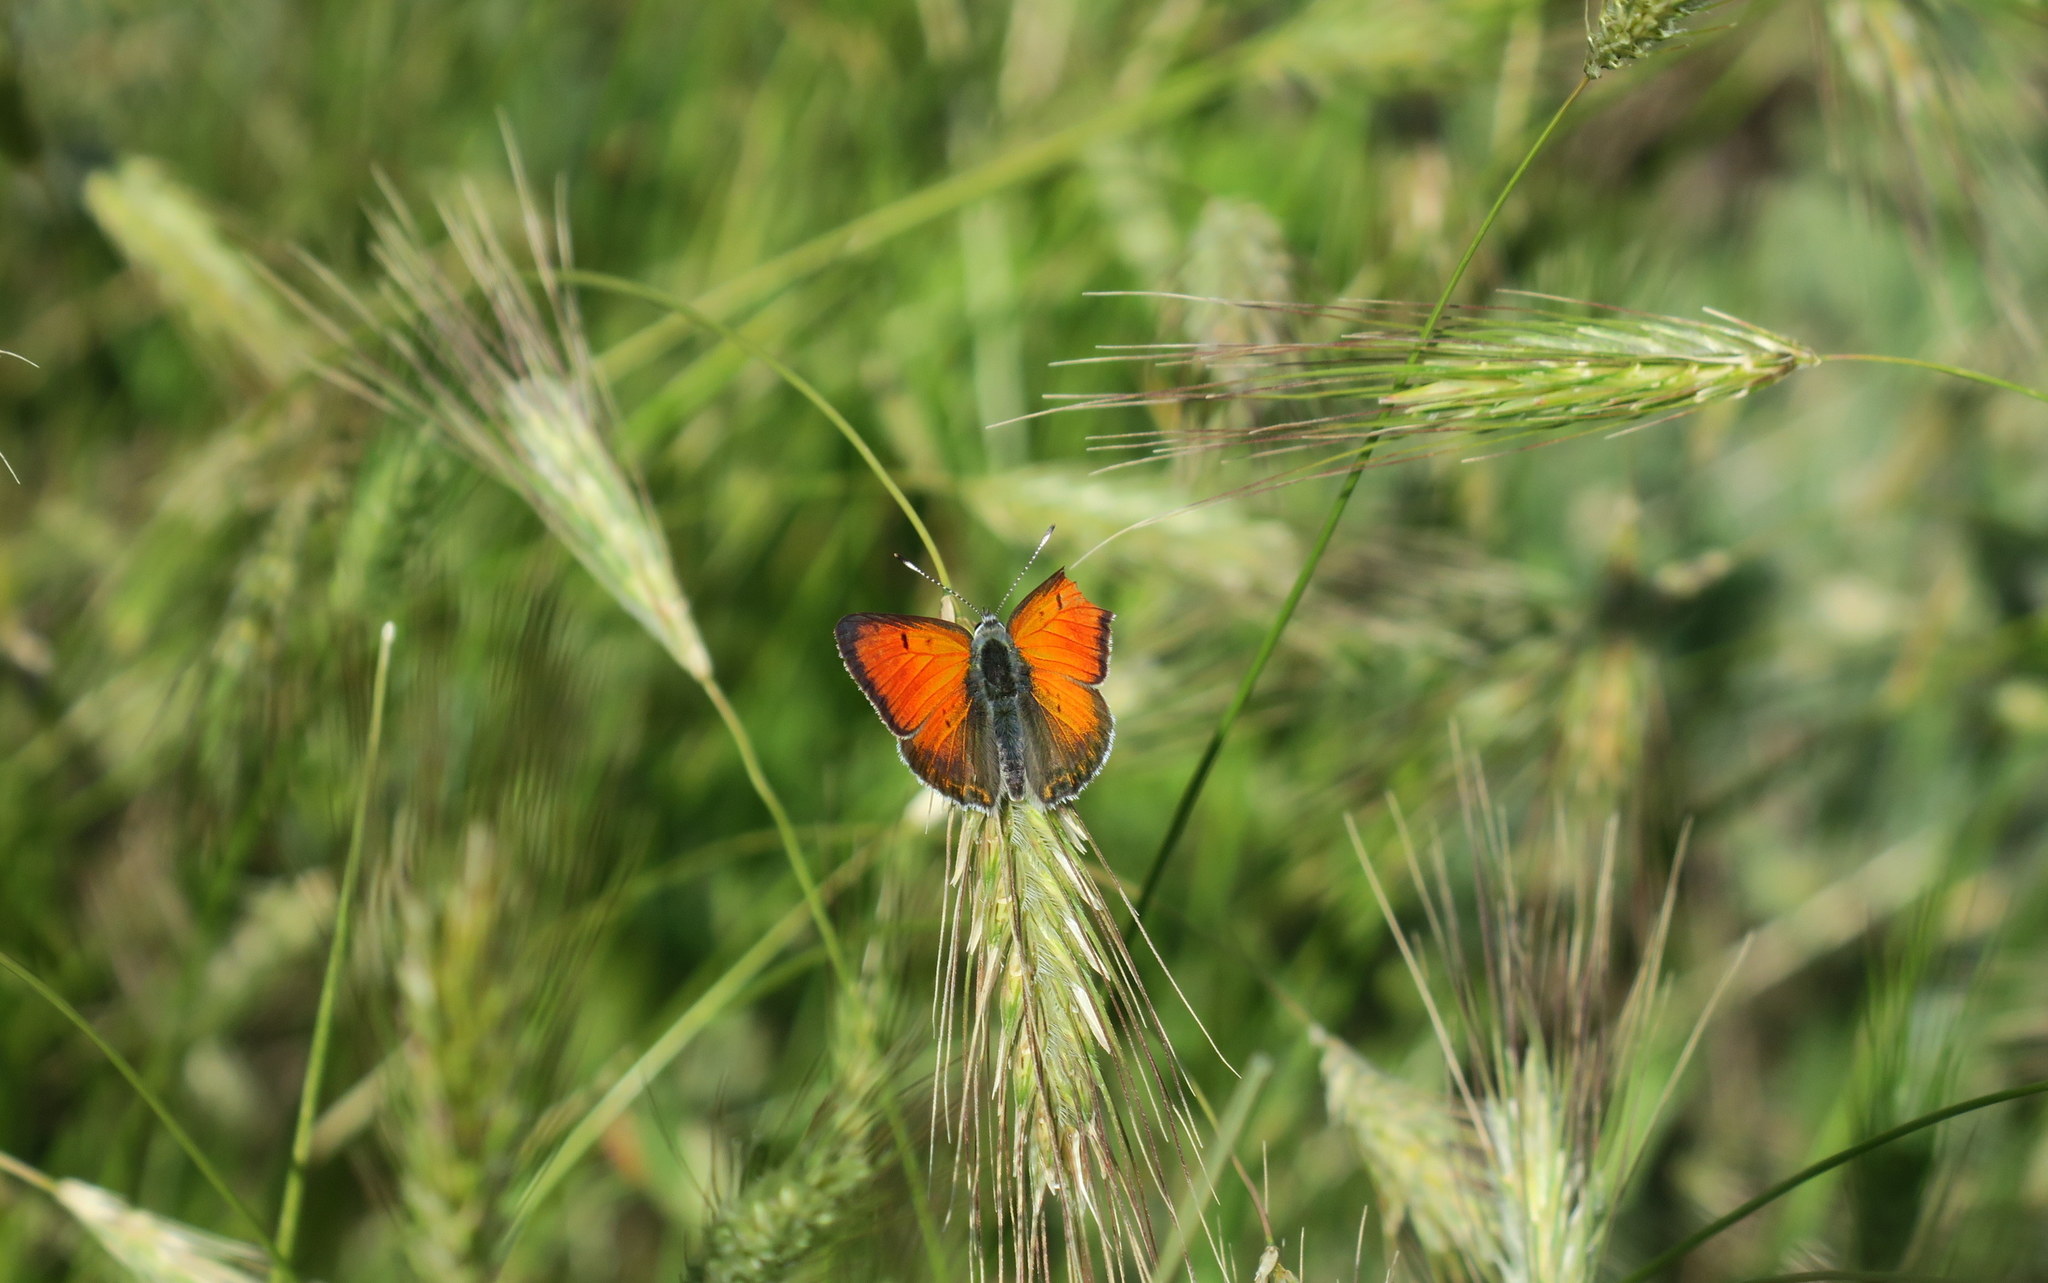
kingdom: Animalia
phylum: Arthropoda
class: Insecta
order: Lepidoptera
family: Lycaenidae
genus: Palaeochrysophanus
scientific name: Palaeochrysophanus candens
